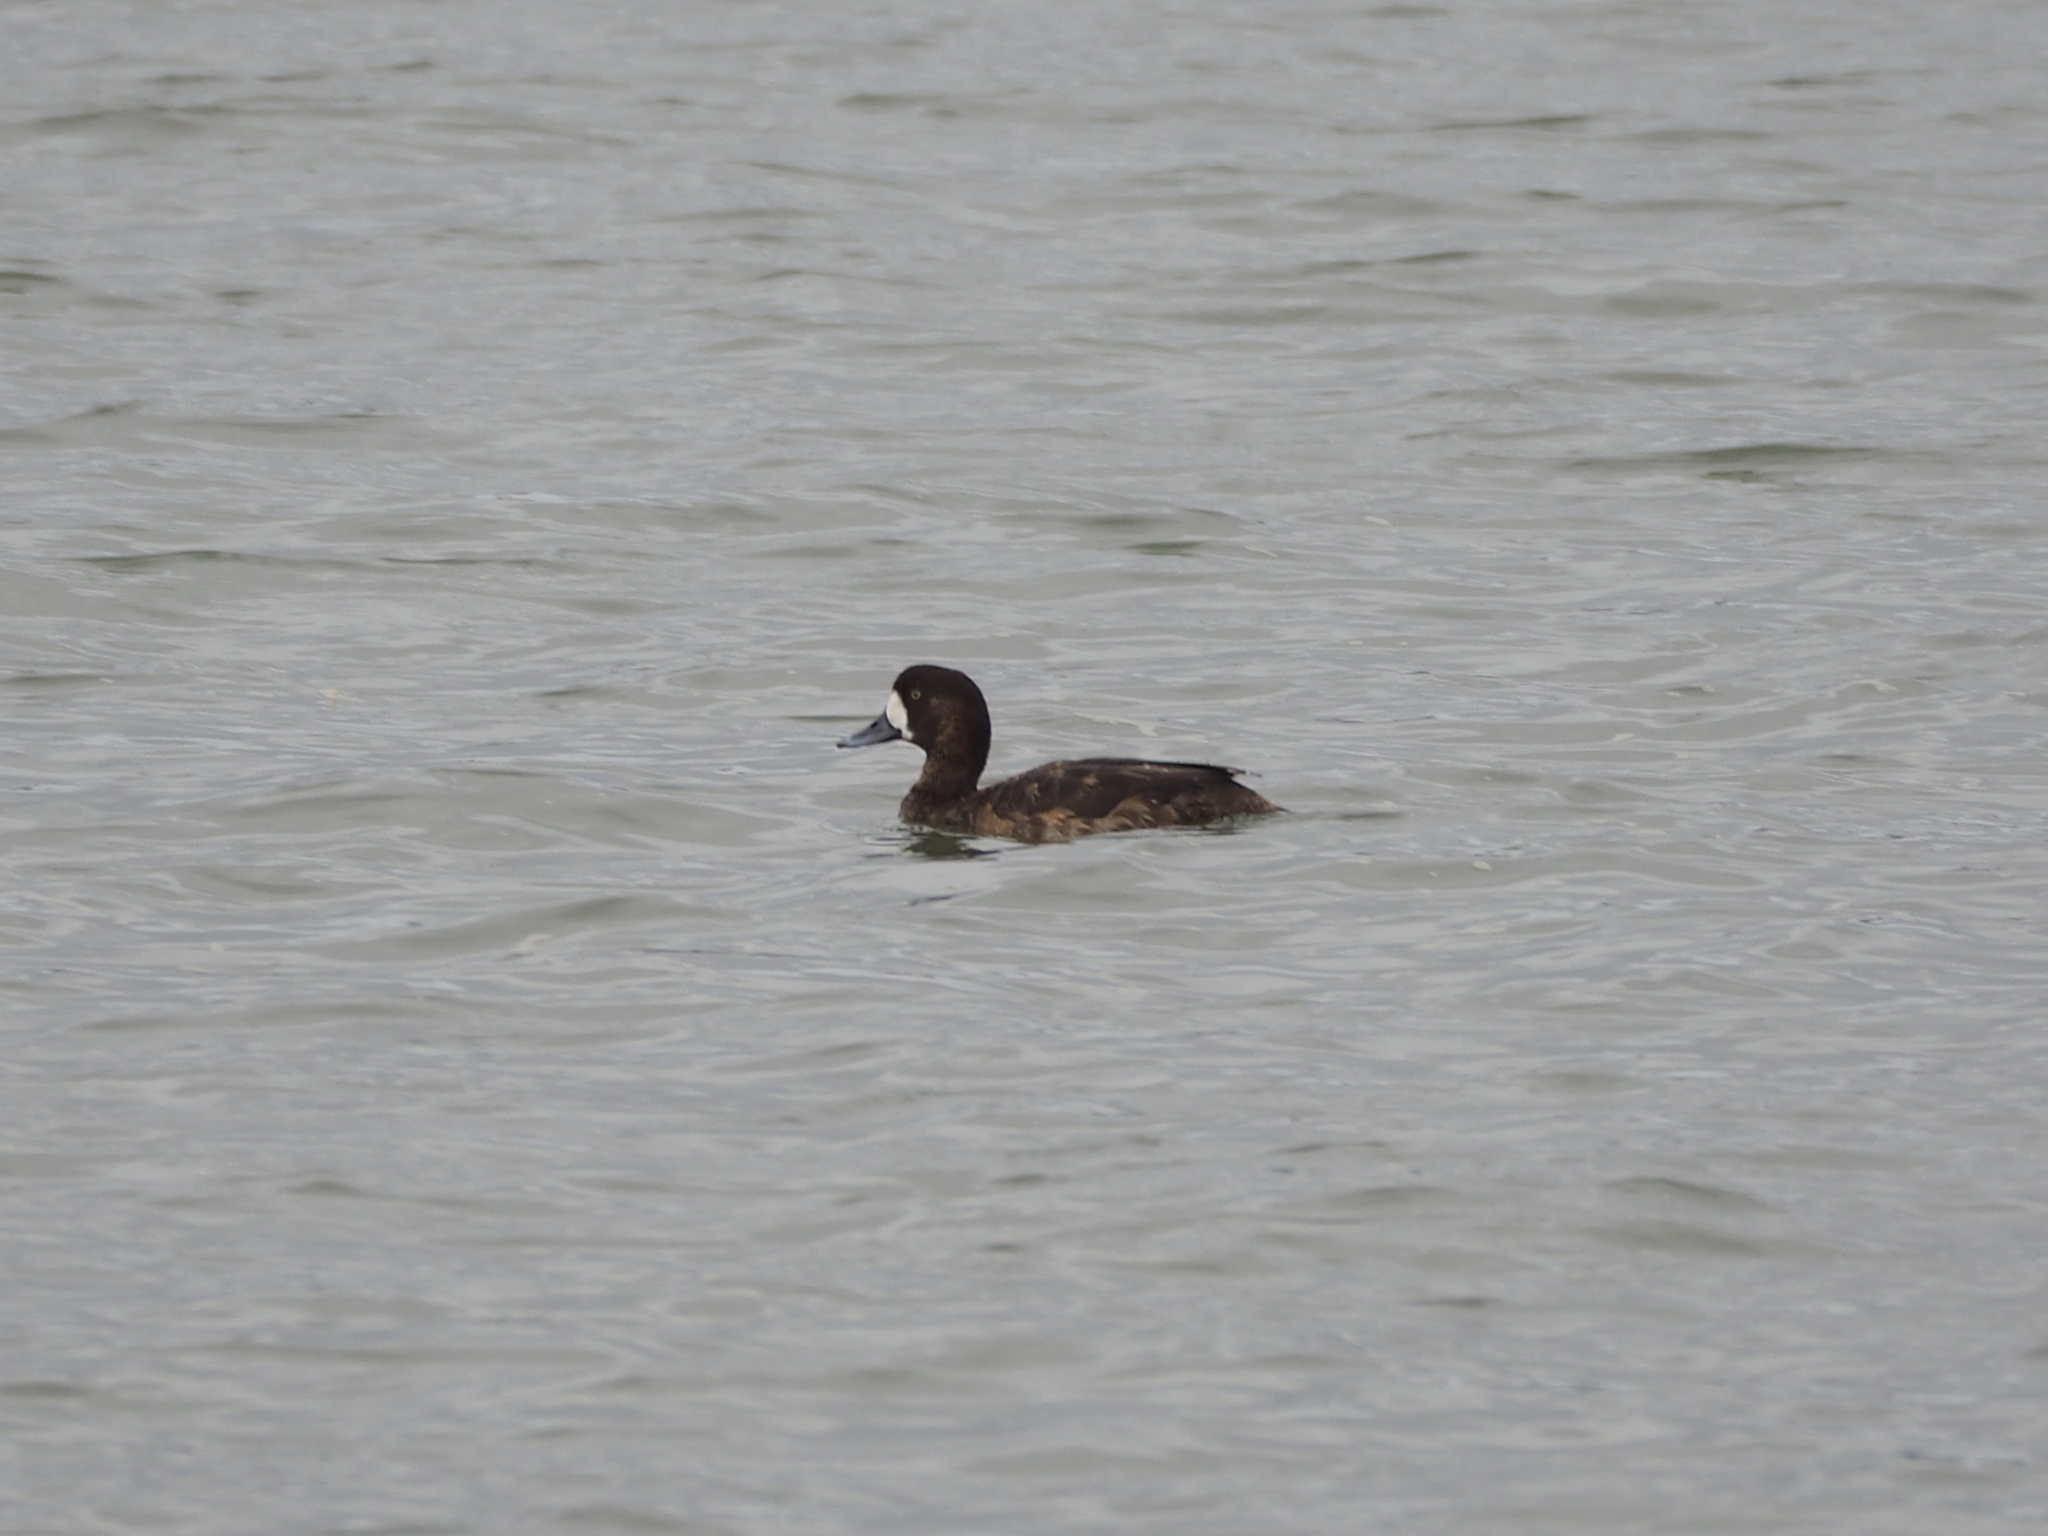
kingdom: Animalia
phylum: Chordata
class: Aves
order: Anseriformes
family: Anatidae
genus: Aythya
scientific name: Aythya marila
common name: Greater scaup
